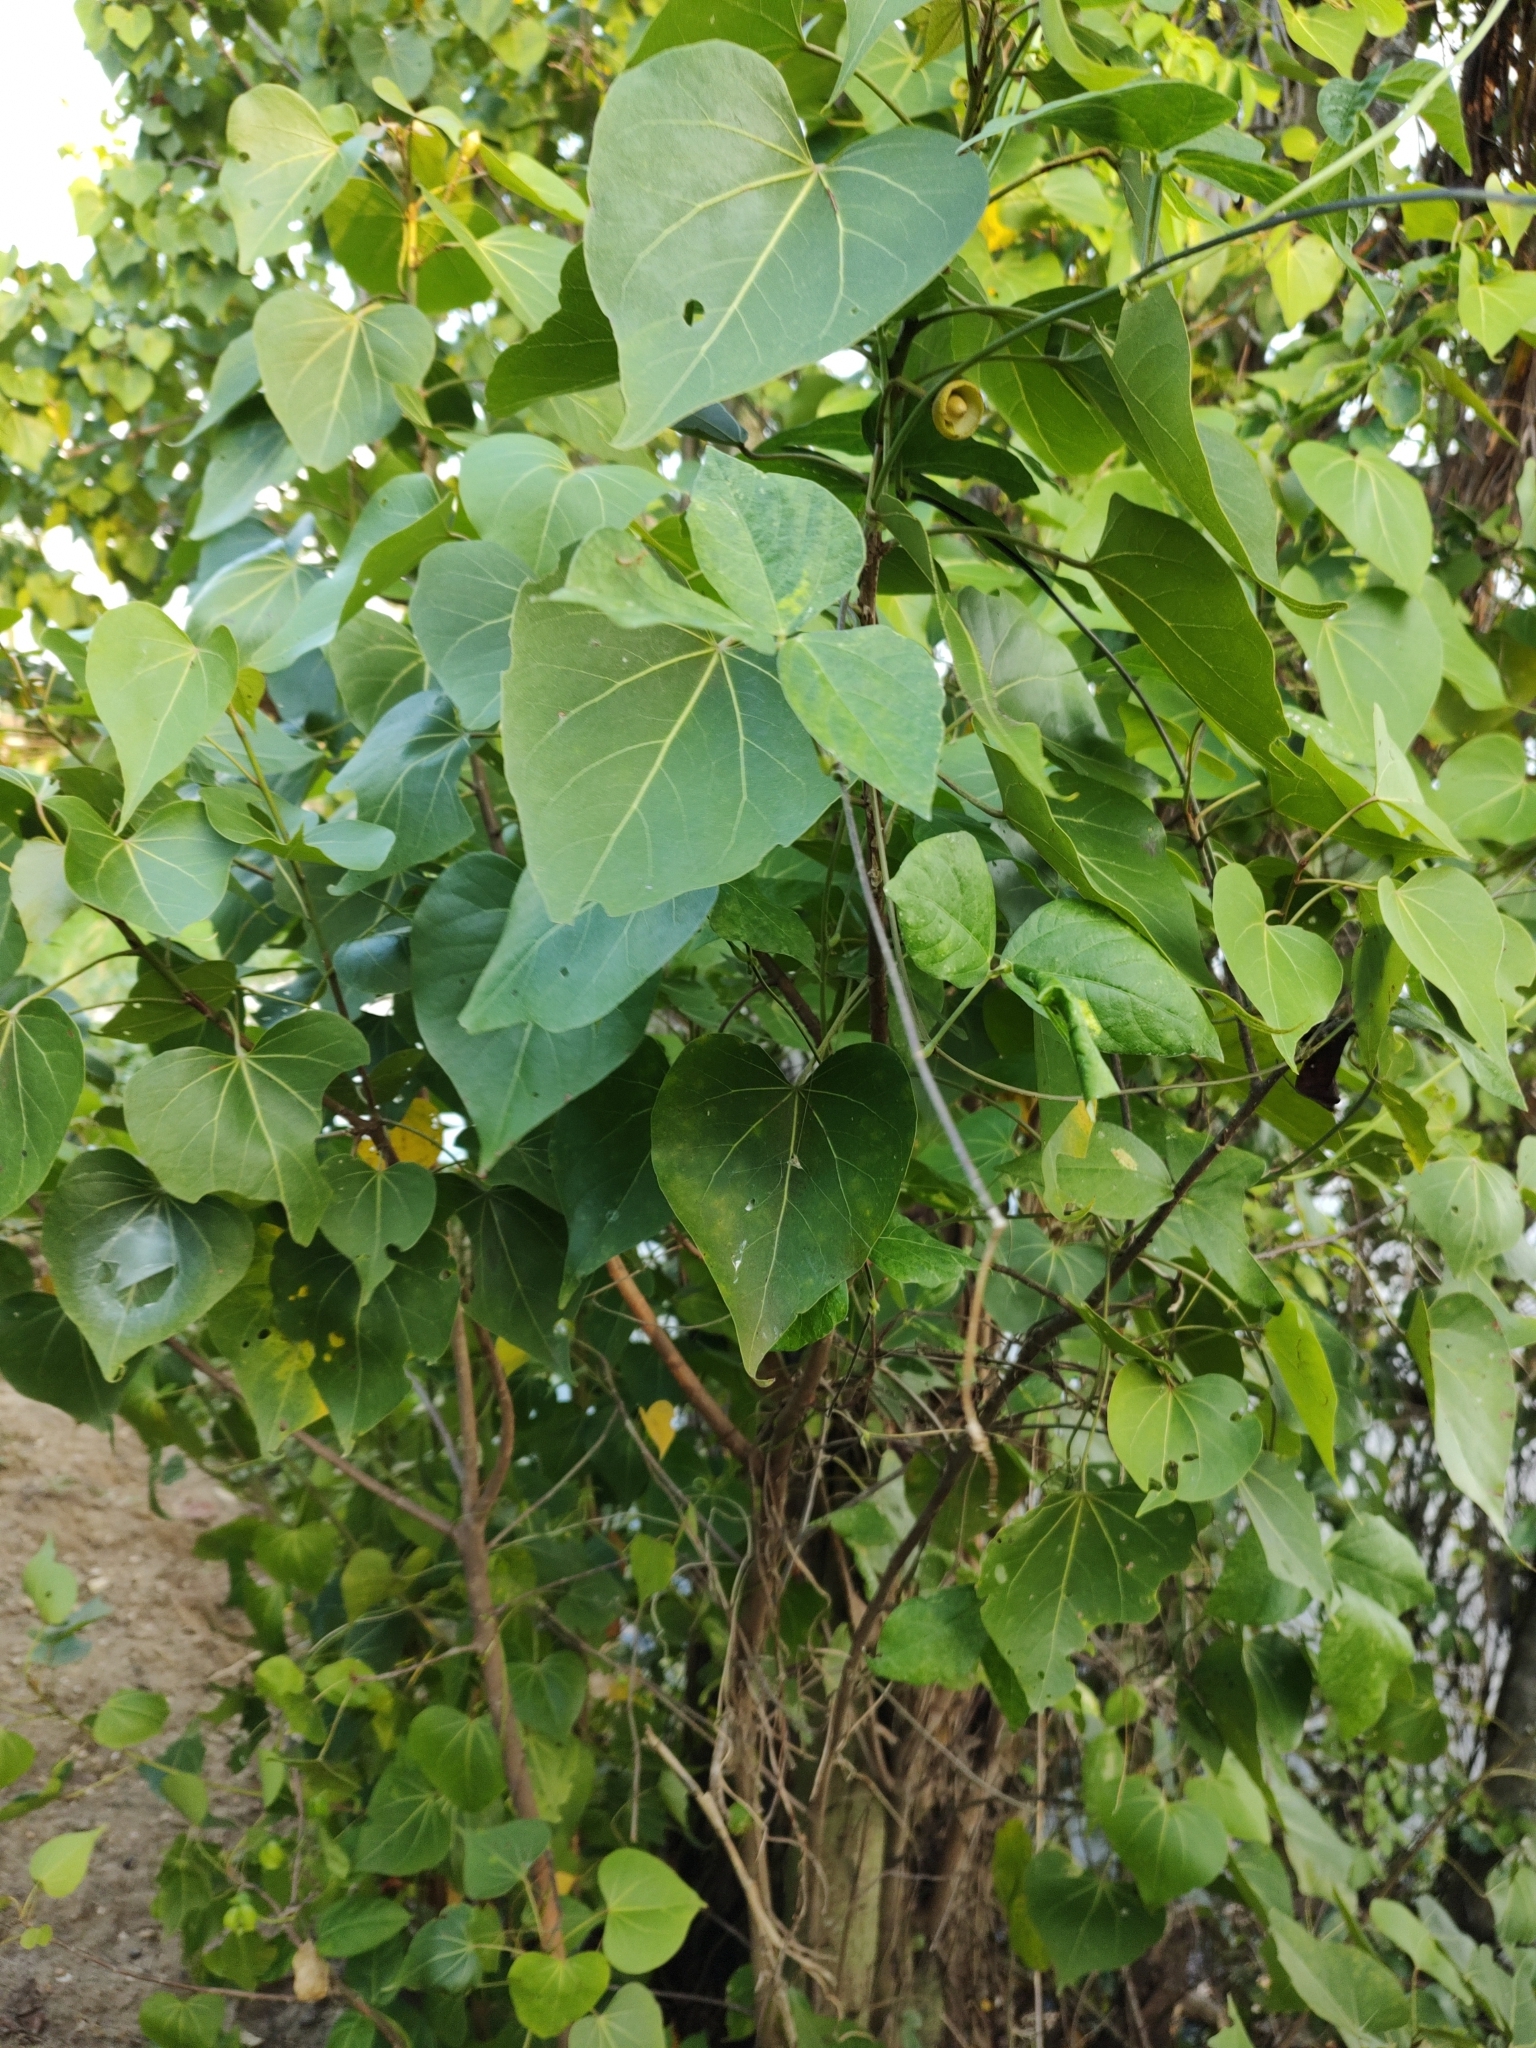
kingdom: Plantae
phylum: Tracheophyta
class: Magnoliopsida
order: Malvales
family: Malvaceae
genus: Thespesia
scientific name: Thespesia populnea
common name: Seaside mahoe
